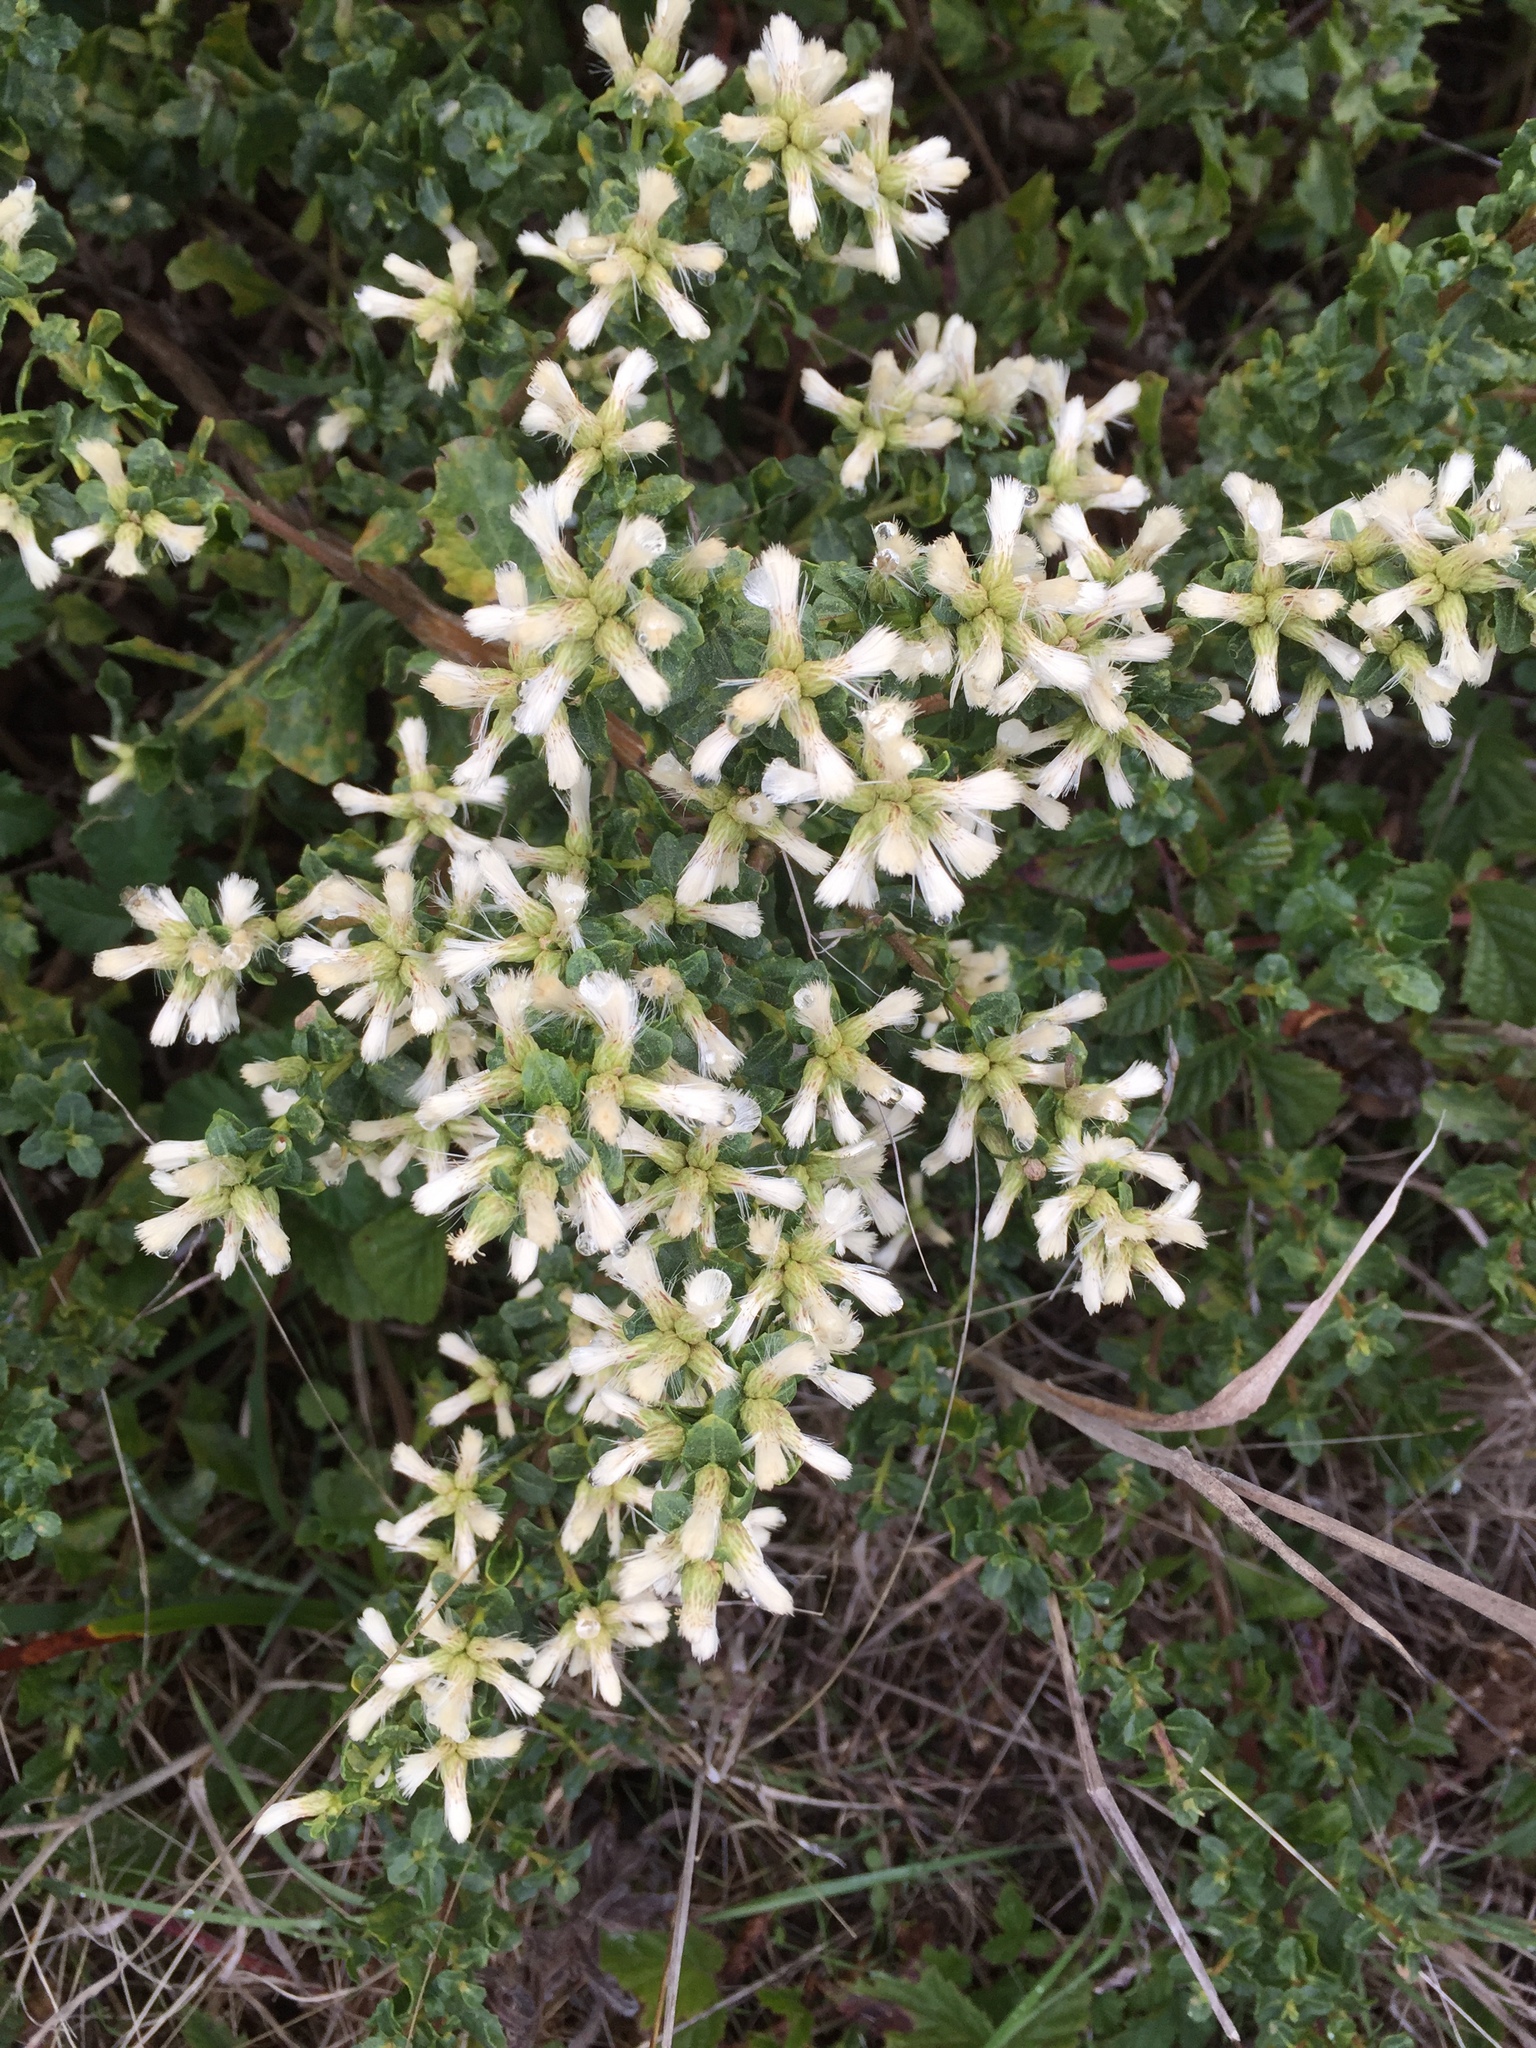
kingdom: Plantae
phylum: Tracheophyta
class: Magnoliopsida
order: Asterales
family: Asteraceae
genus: Baccharis
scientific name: Baccharis pilularis
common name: Coyotebrush
